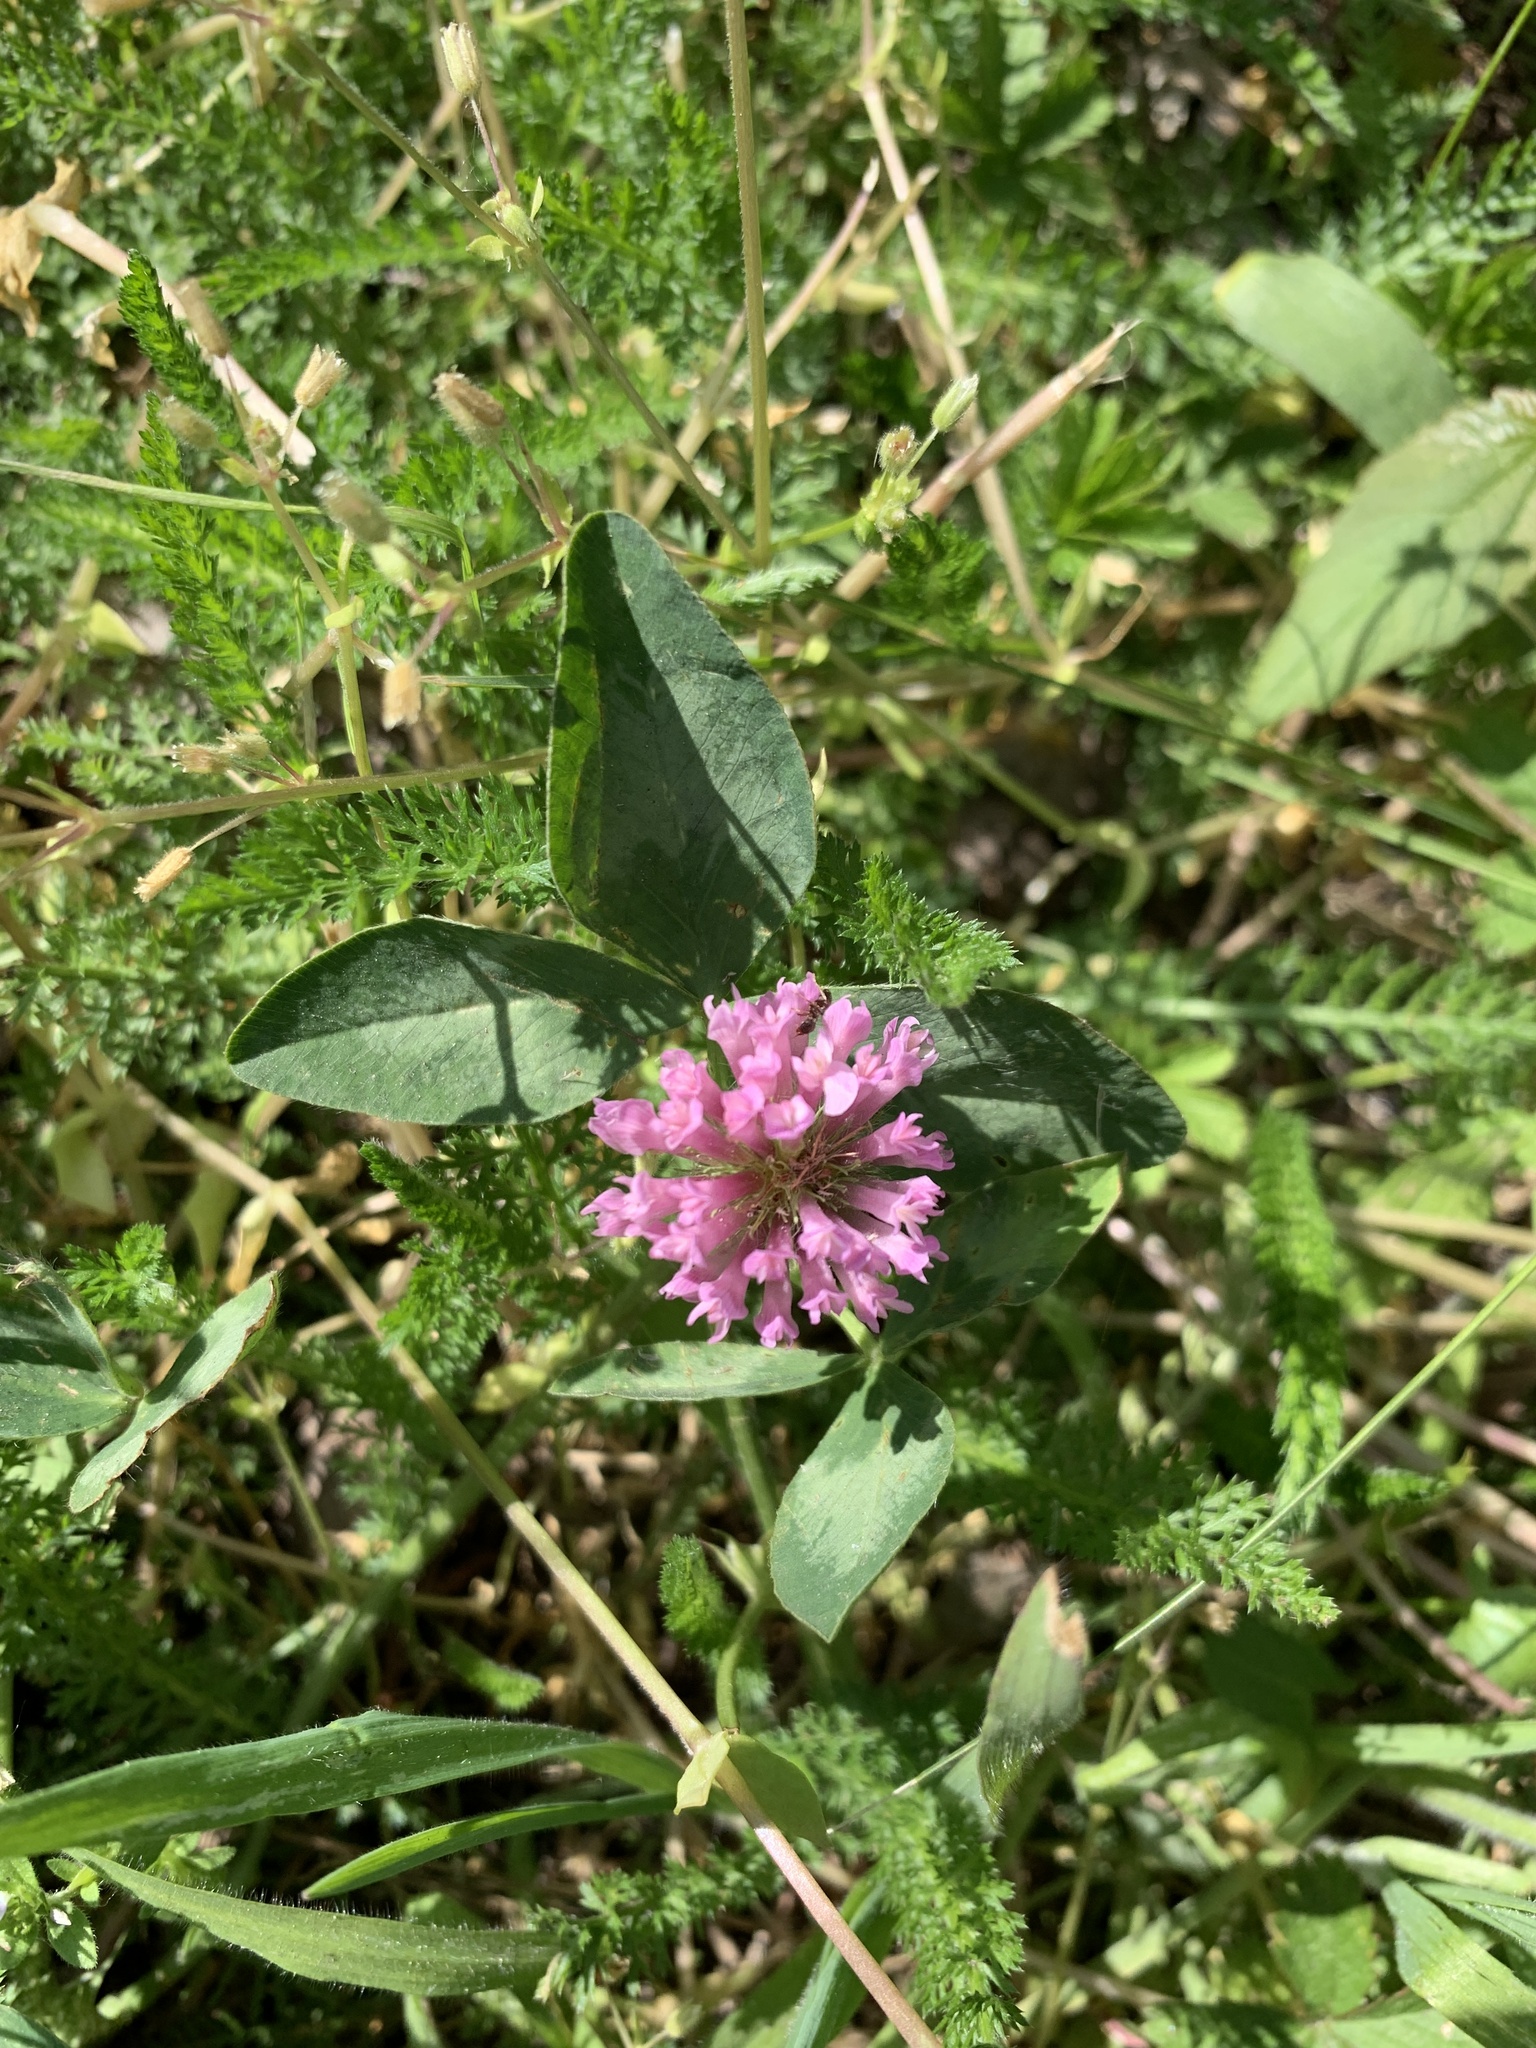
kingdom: Plantae
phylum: Tracheophyta
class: Magnoliopsida
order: Fabales
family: Fabaceae
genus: Trifolium
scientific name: Trifolium pratense
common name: Red clover
